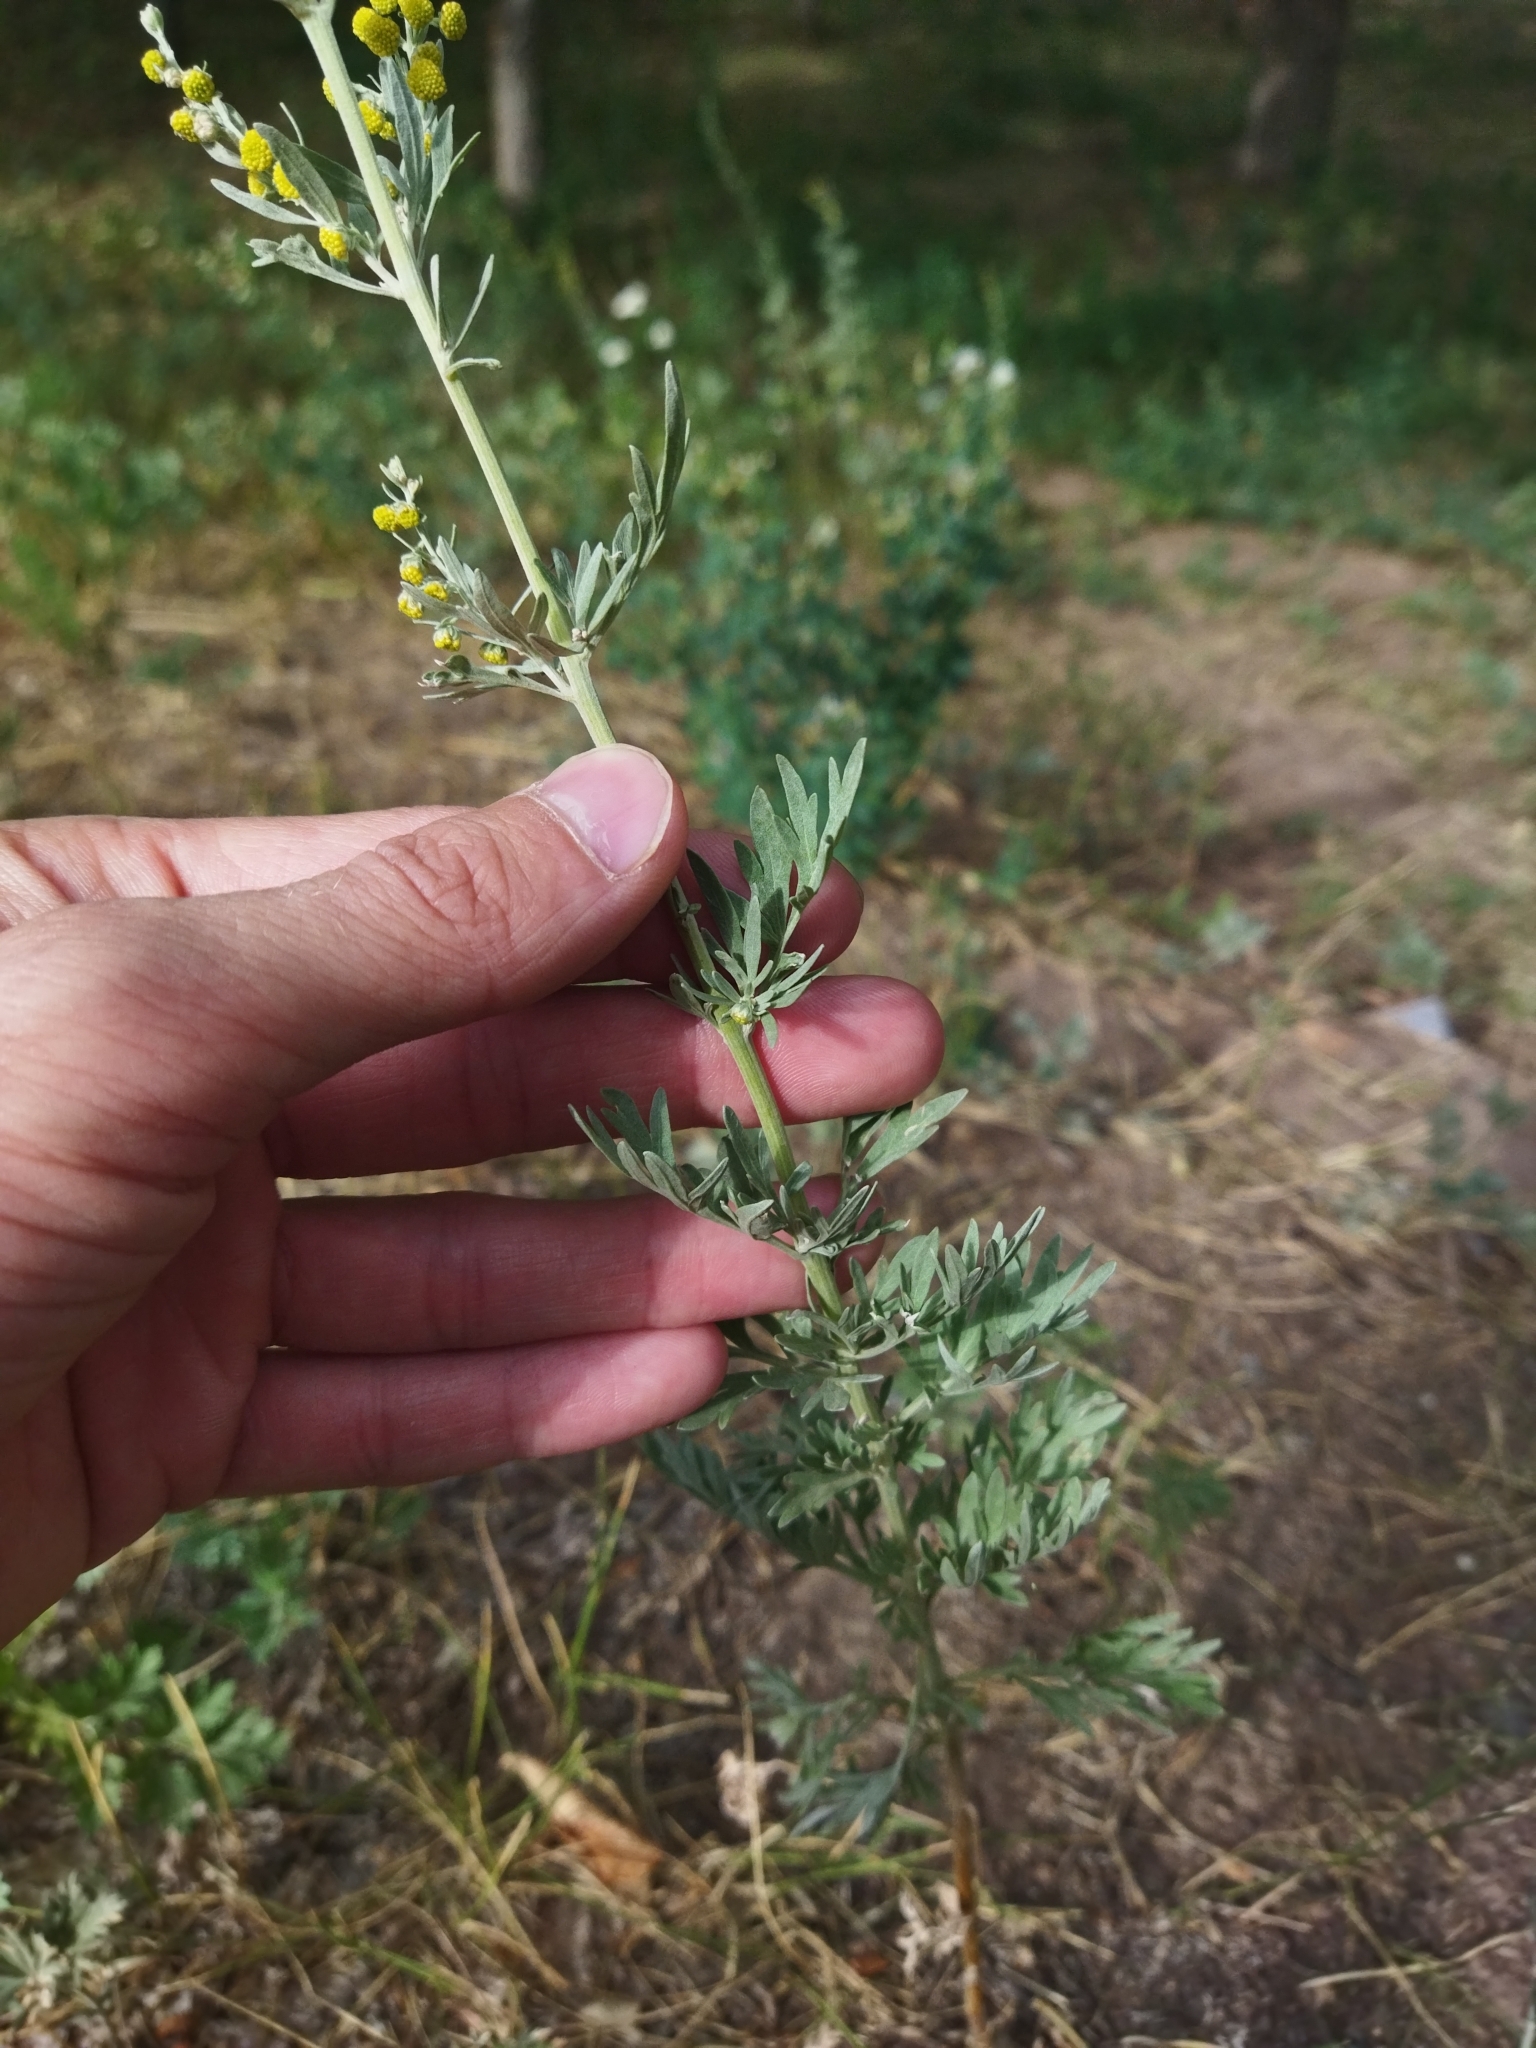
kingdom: Plantae
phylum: Tracheophyta
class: Magnoliopsida
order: Asterales
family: Asteraceae
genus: Artemisia
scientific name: Artemisia absinthium
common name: Wormwood
